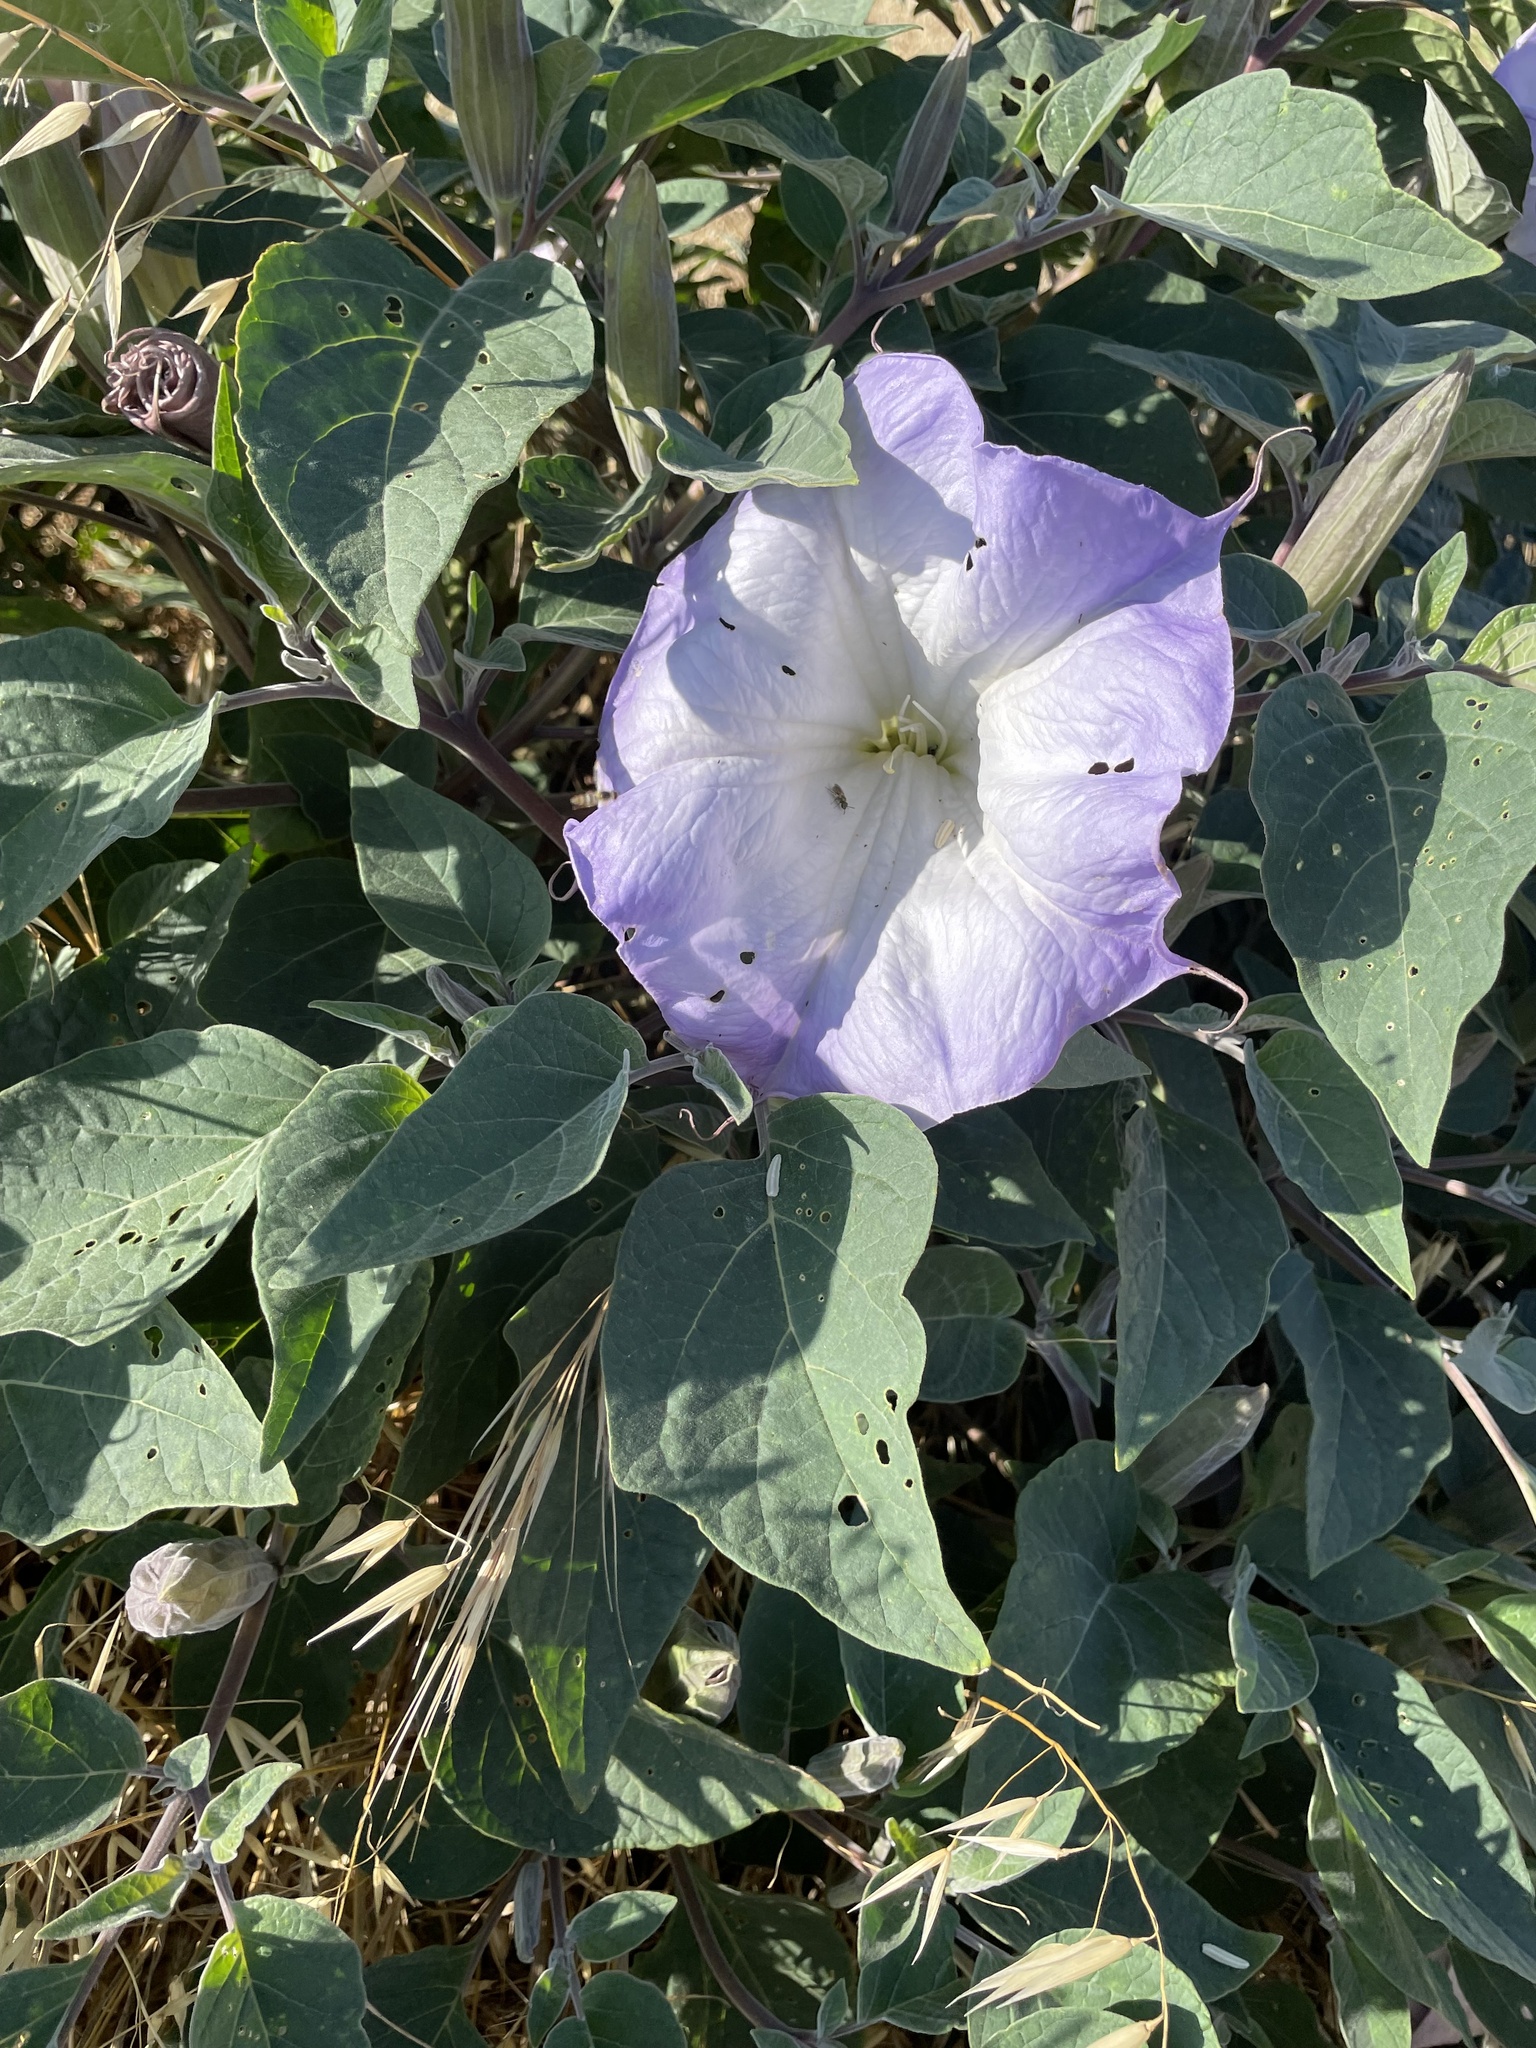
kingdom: Plantae
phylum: Tracheophyta
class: Magnoliopsida
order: Solanales
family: Solanaceae
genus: Datura
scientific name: Datura wrightii
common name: Sacred thorn-apple
